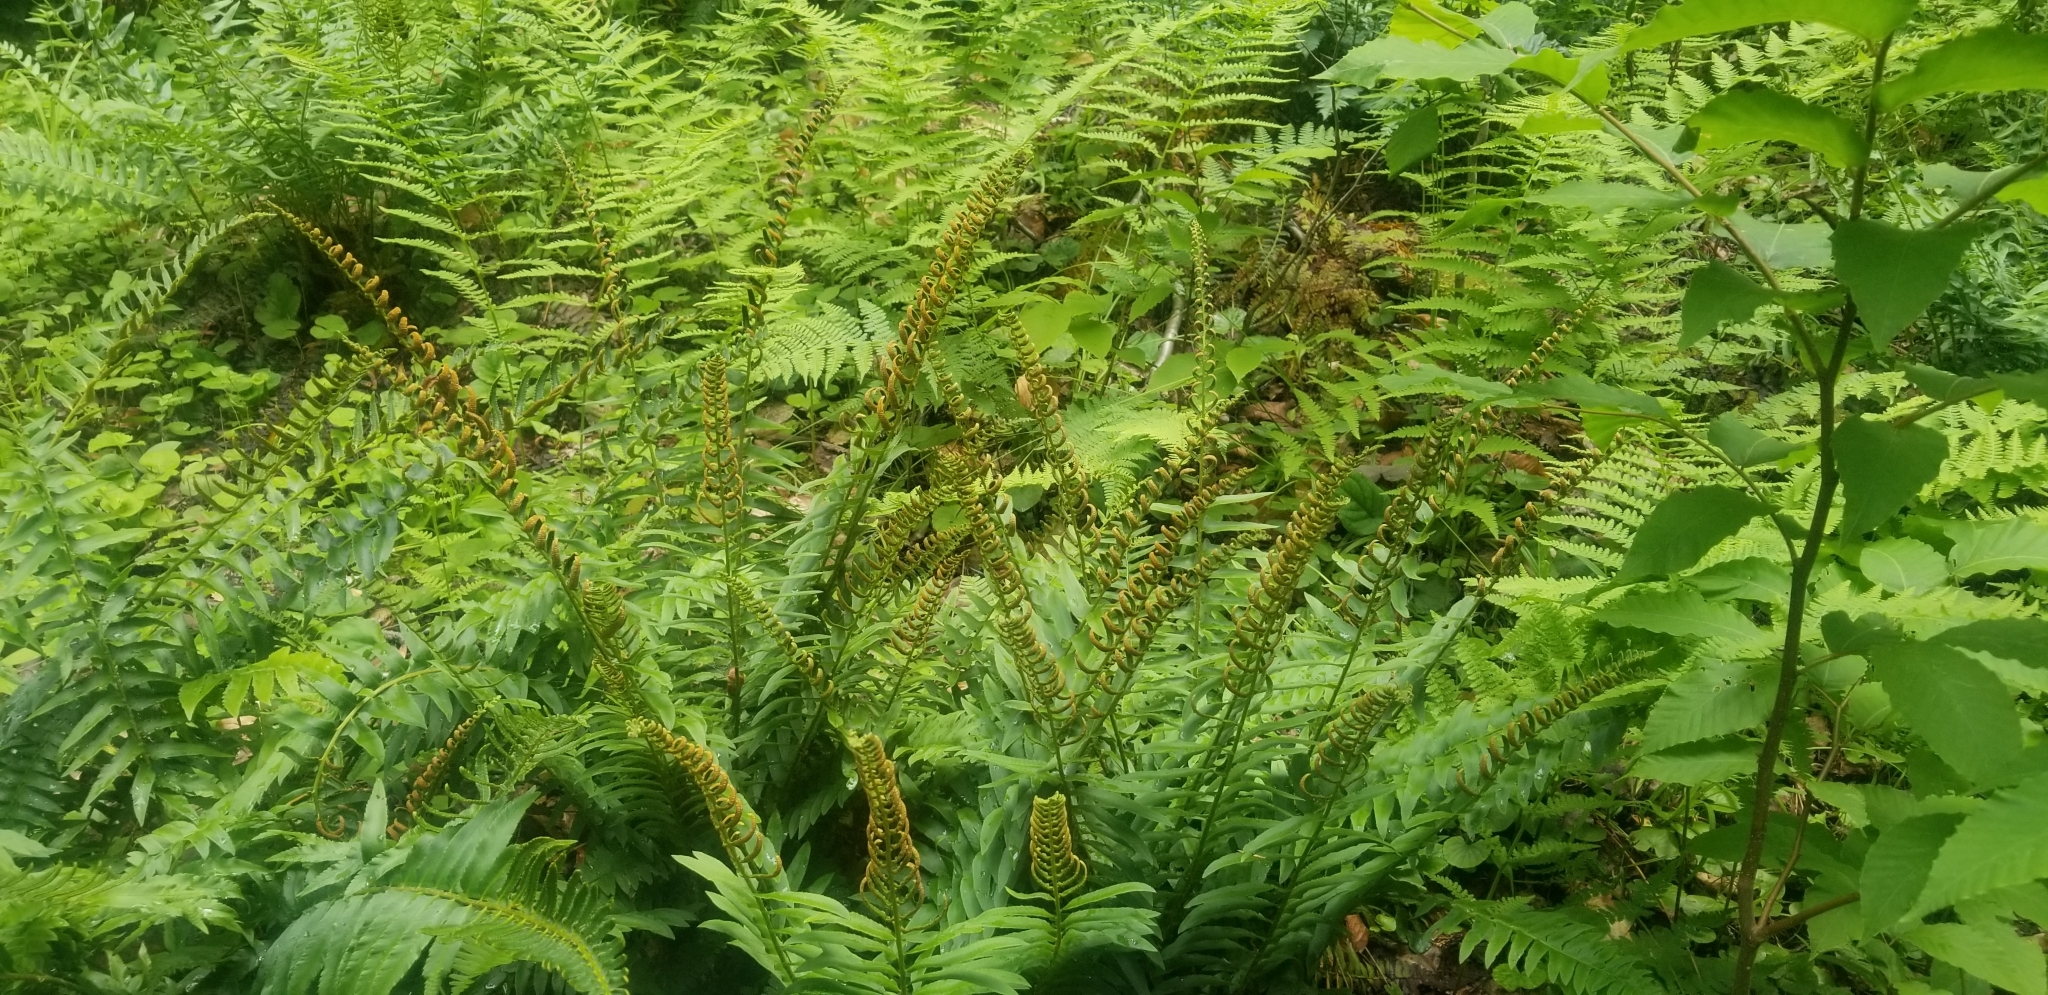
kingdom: Plantae
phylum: Tracheophyta
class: Polypodiopsida
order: Polypodiales
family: Dryopteridaceae
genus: Polystichum
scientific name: Polystichum acrostichoides
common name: Christmas fern
